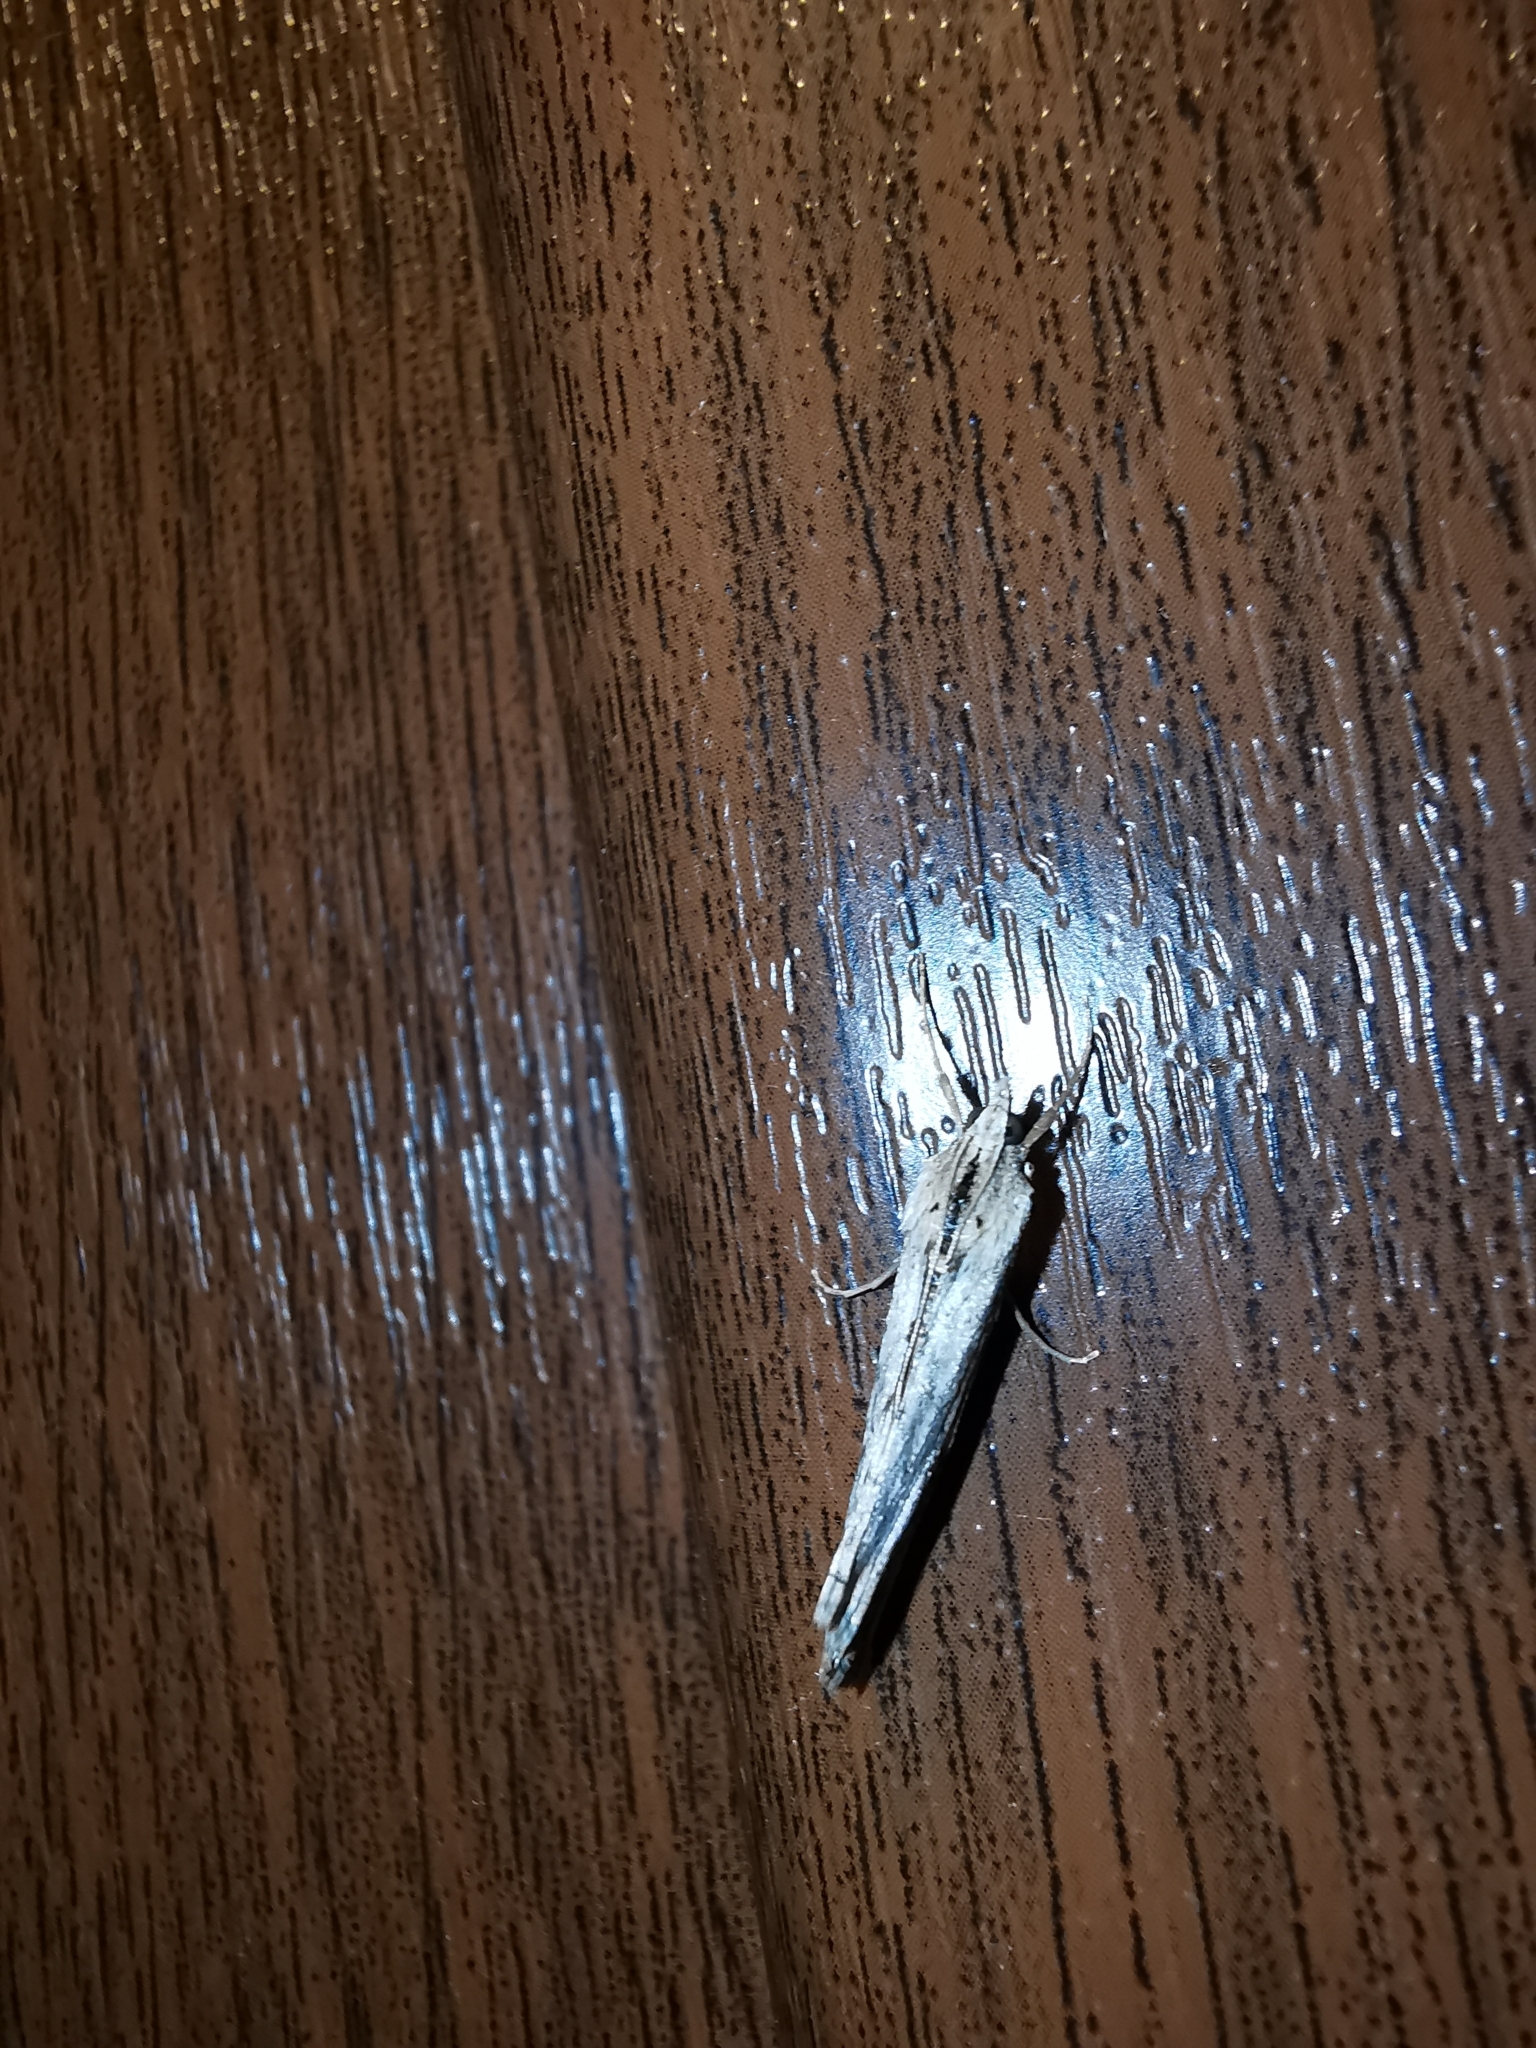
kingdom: Animalia
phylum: Arthropoda
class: Insecta
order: Lepidoptera
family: Crambidae
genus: Evergestis
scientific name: Evergestis isatidalis
